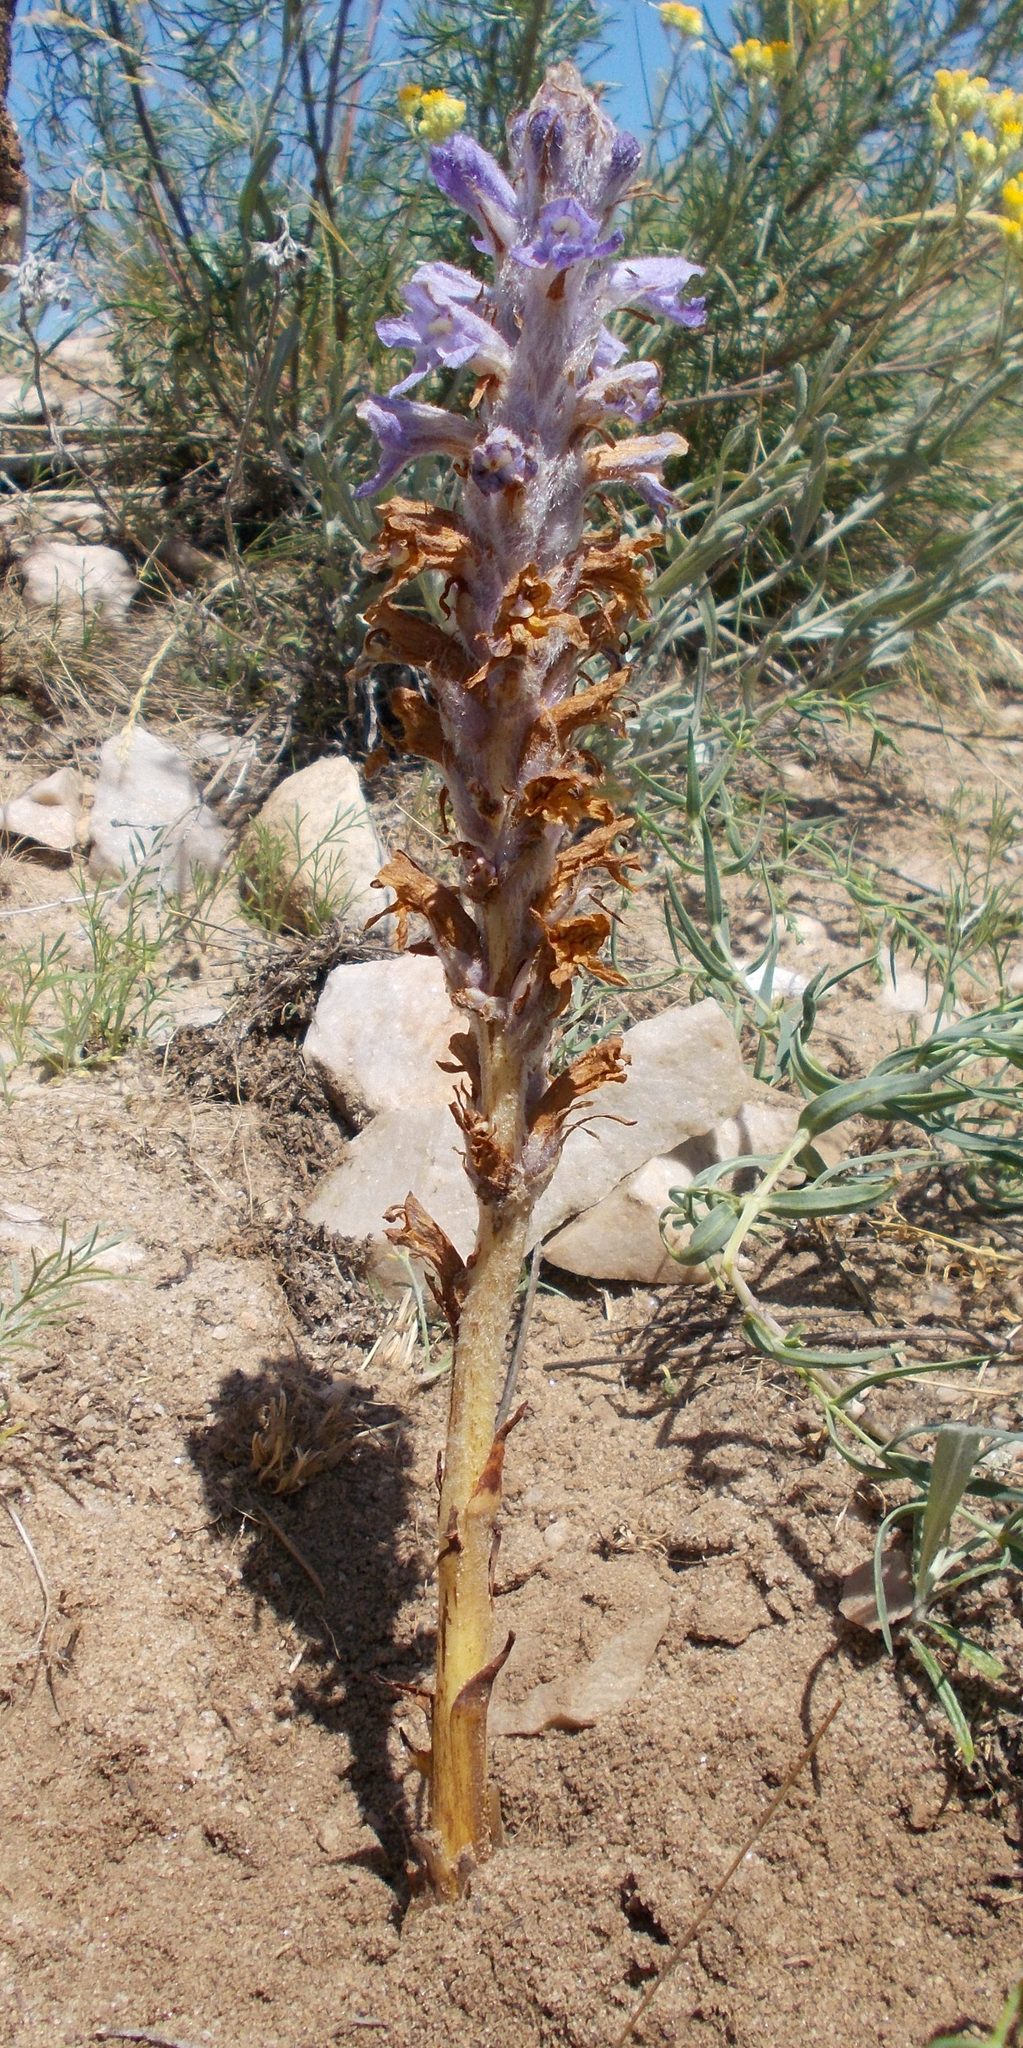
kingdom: Plantae
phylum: Tracheophyta
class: Magnoliopsida
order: Lamiales
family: Orobanchaceae
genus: Orobanche
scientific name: Orobanche coerulescens
